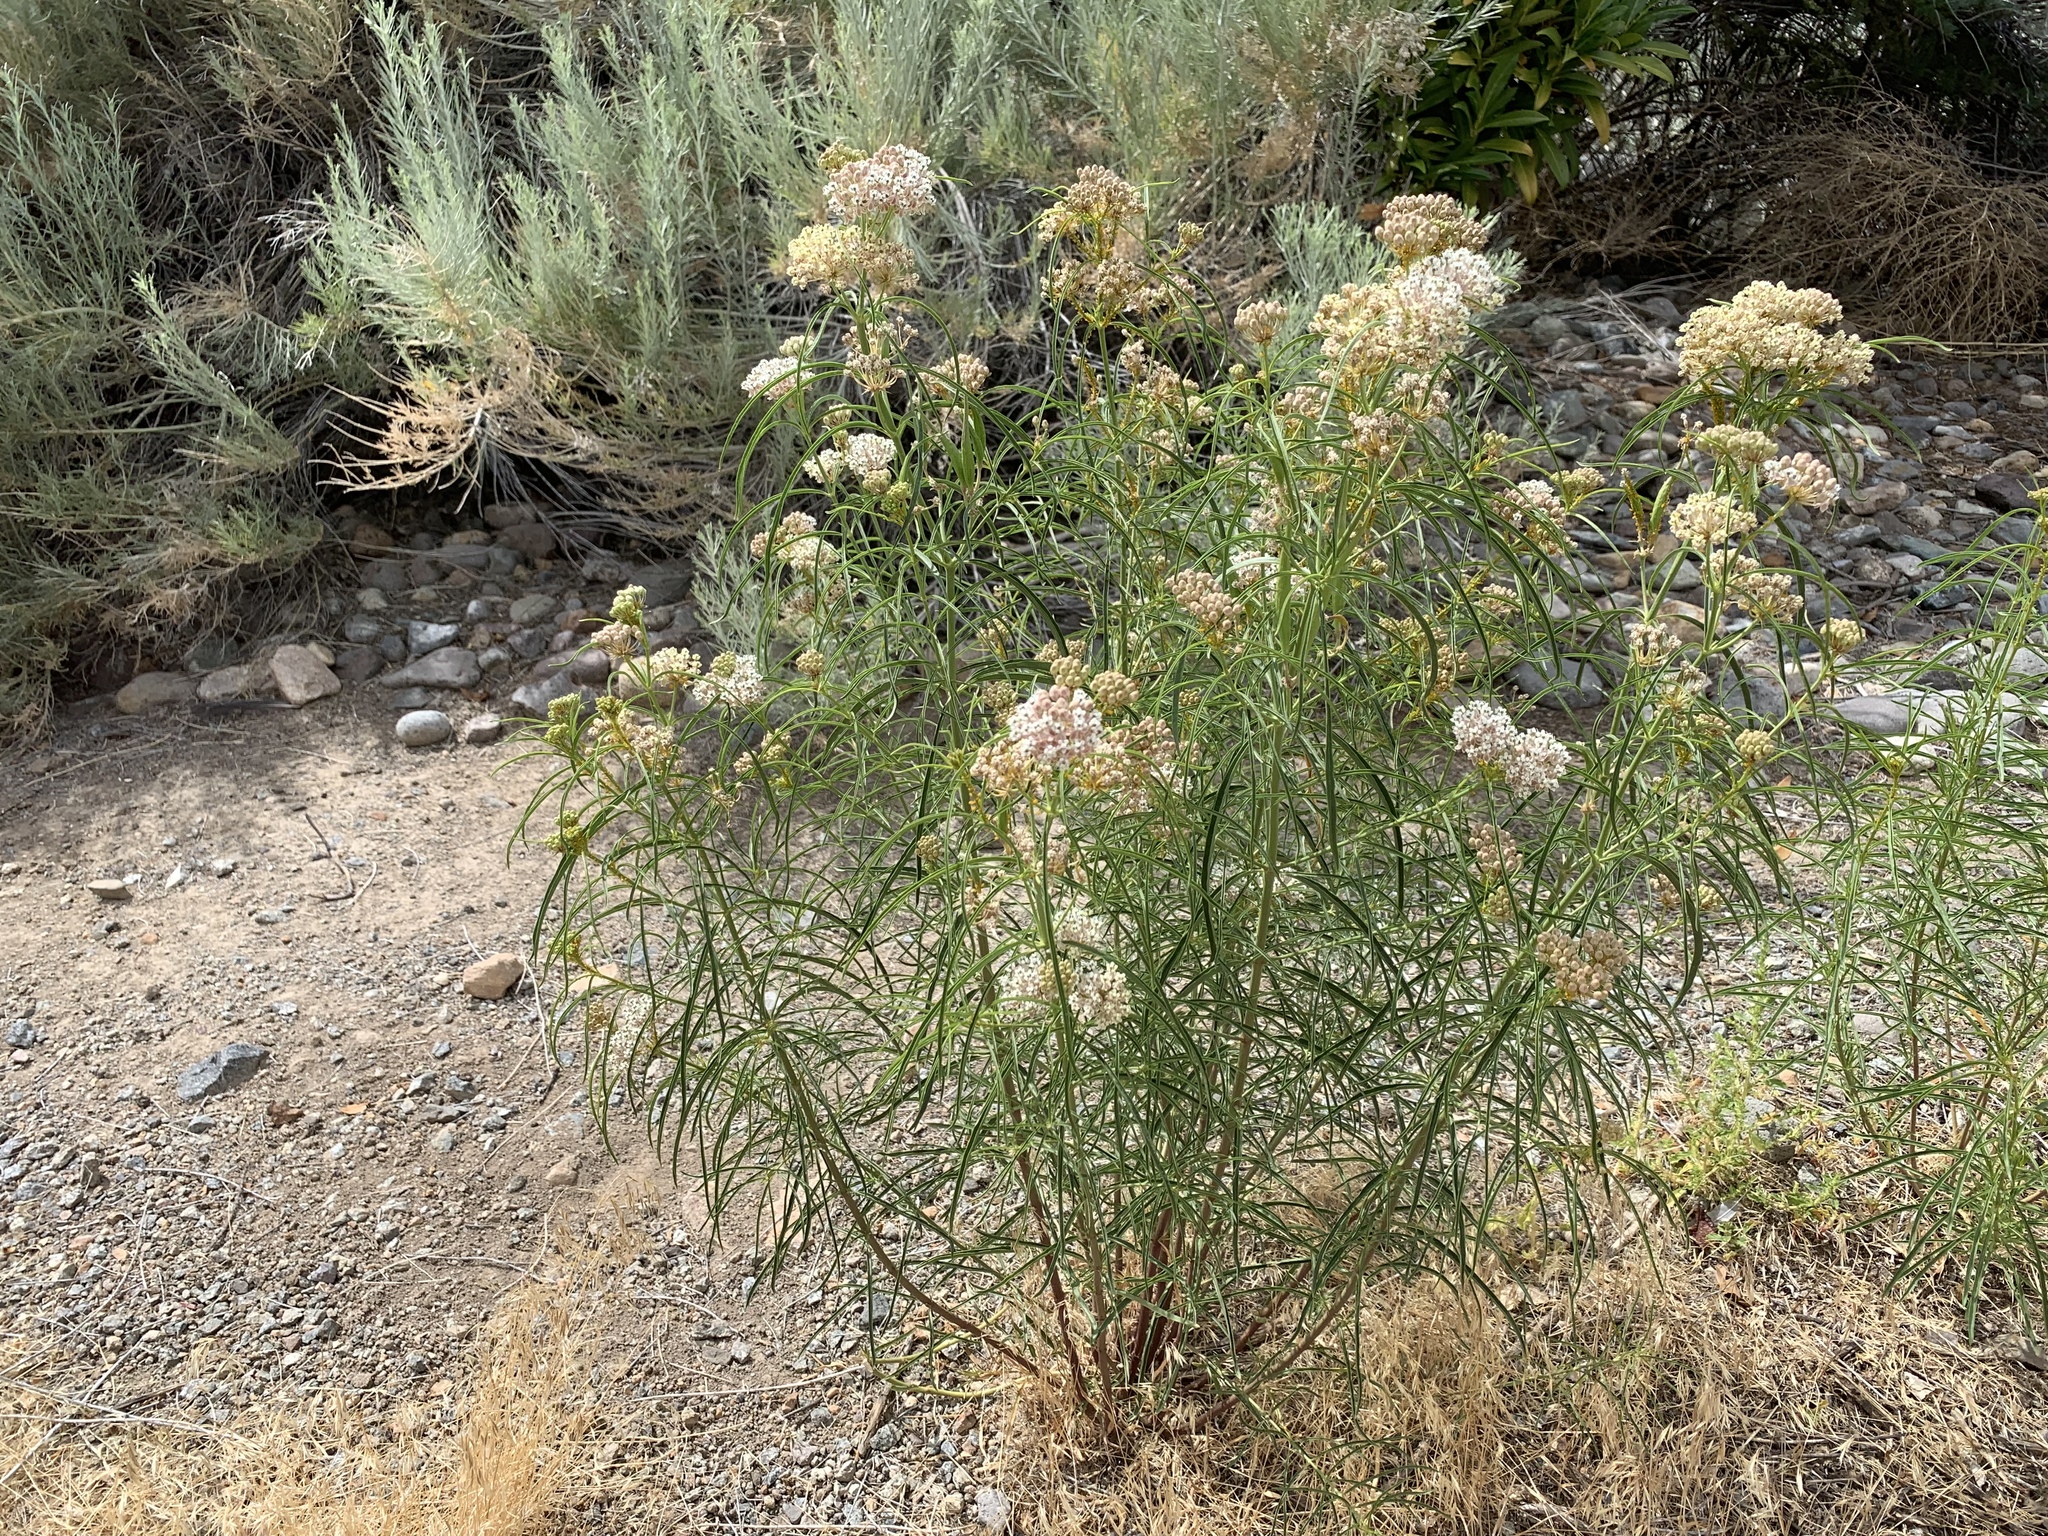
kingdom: Plantae
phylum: Tracheophyta
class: Magnoliopsida
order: Gentianales
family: Apocynaceae
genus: Asclepias
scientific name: Asclepias fascicularis
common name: Mexican milkweed
